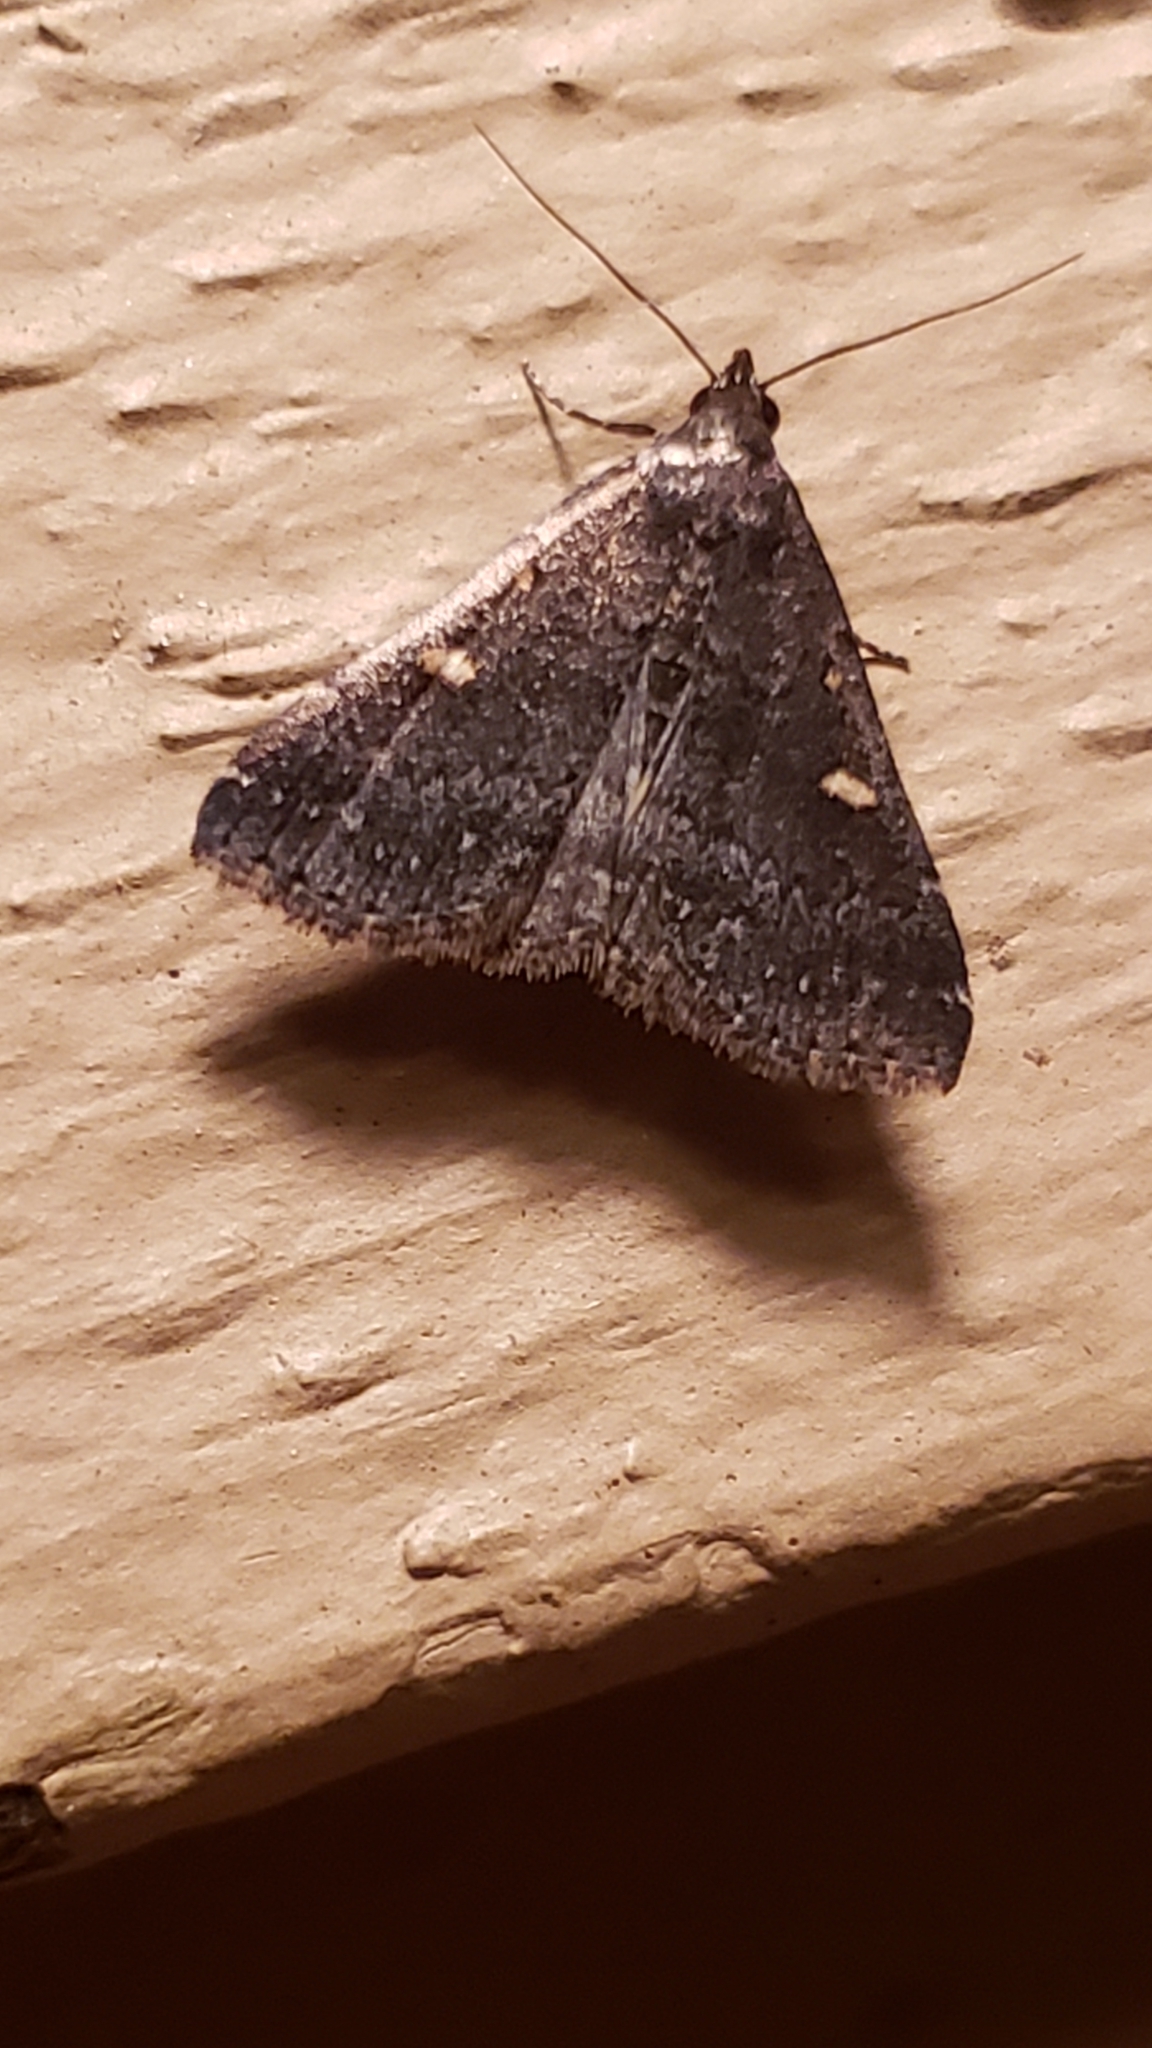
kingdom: Animalia
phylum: Arthropoda
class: Insecta
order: Lepidoptera
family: Erebidae
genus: Tetanolita
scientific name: Tetanolita mynesalis
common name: Smoky tetanolita moth
